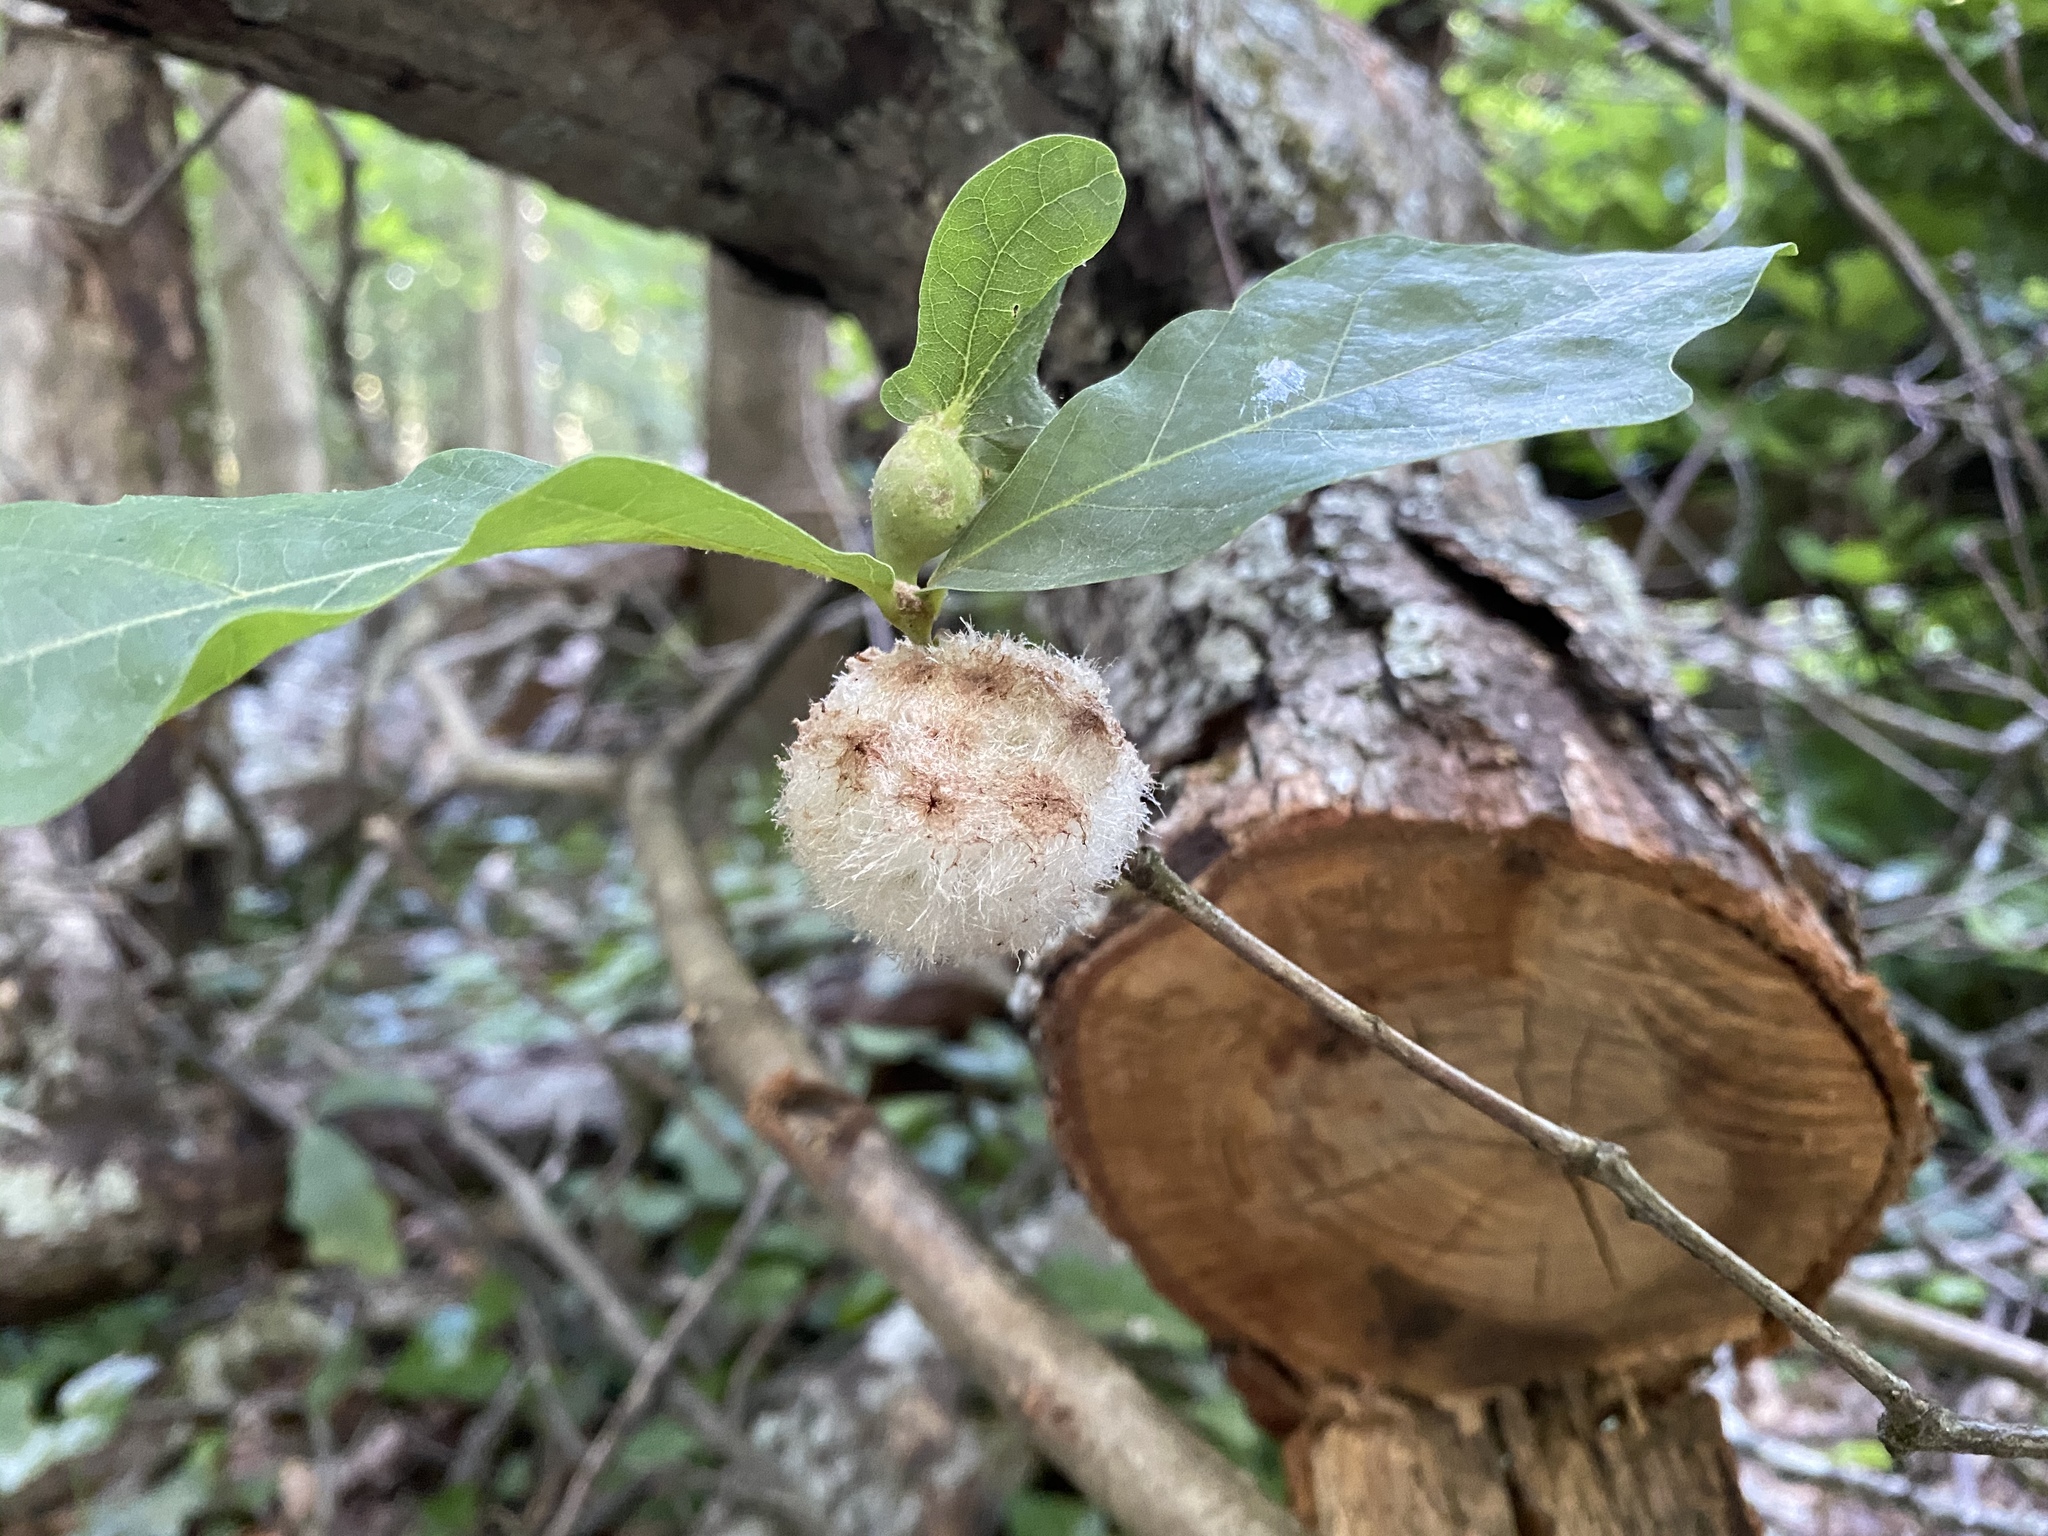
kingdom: Animalia
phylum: Arthropoda
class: Insecta
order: Hymenoptera
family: Cynipidae
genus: Callirhytis
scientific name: Callirhytis
